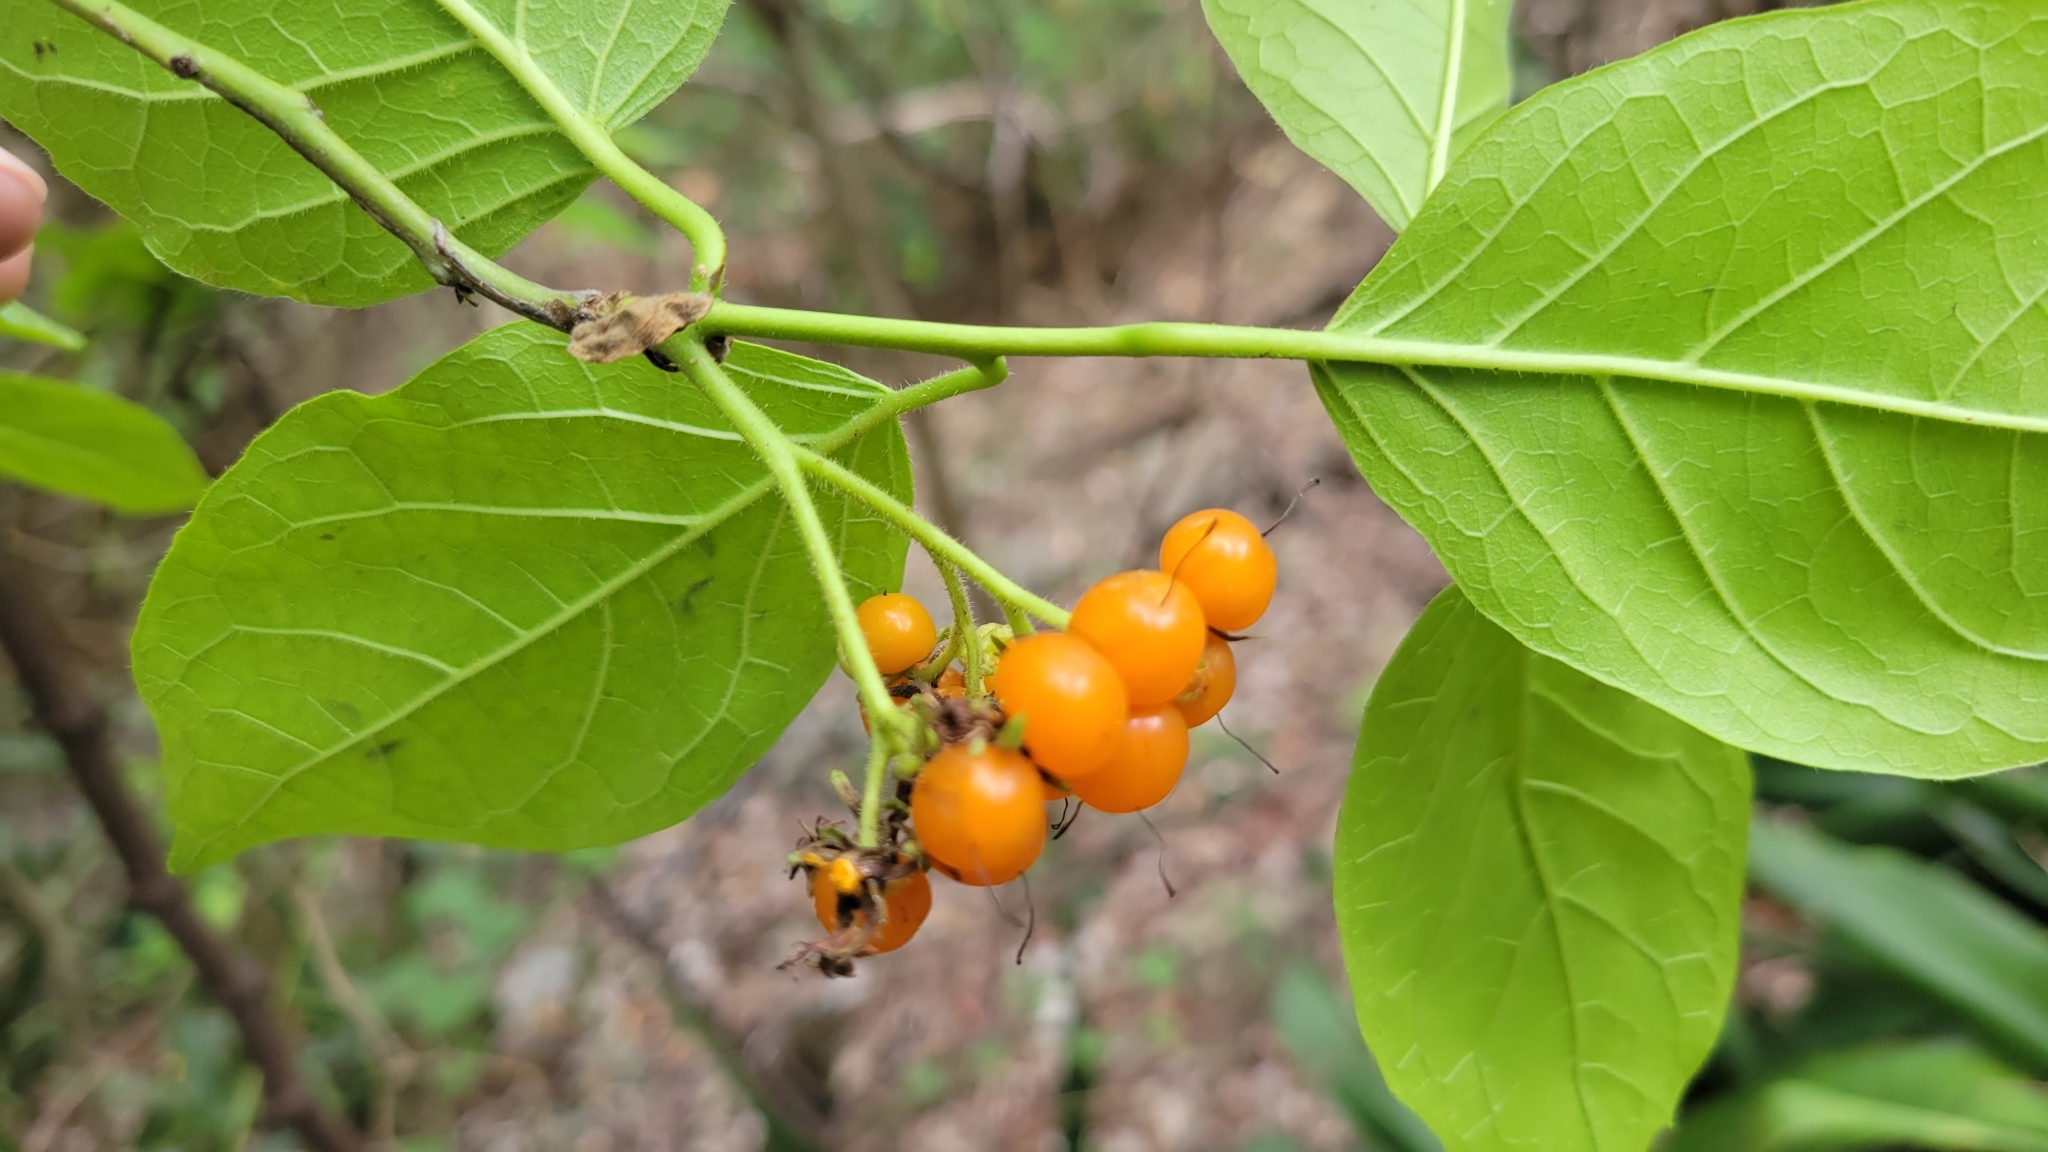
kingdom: Plantae
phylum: Tracheophyta
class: Magnoliopsida
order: Boraginales
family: Ehretiaceae
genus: Ehretia
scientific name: Ehretia resinosa
